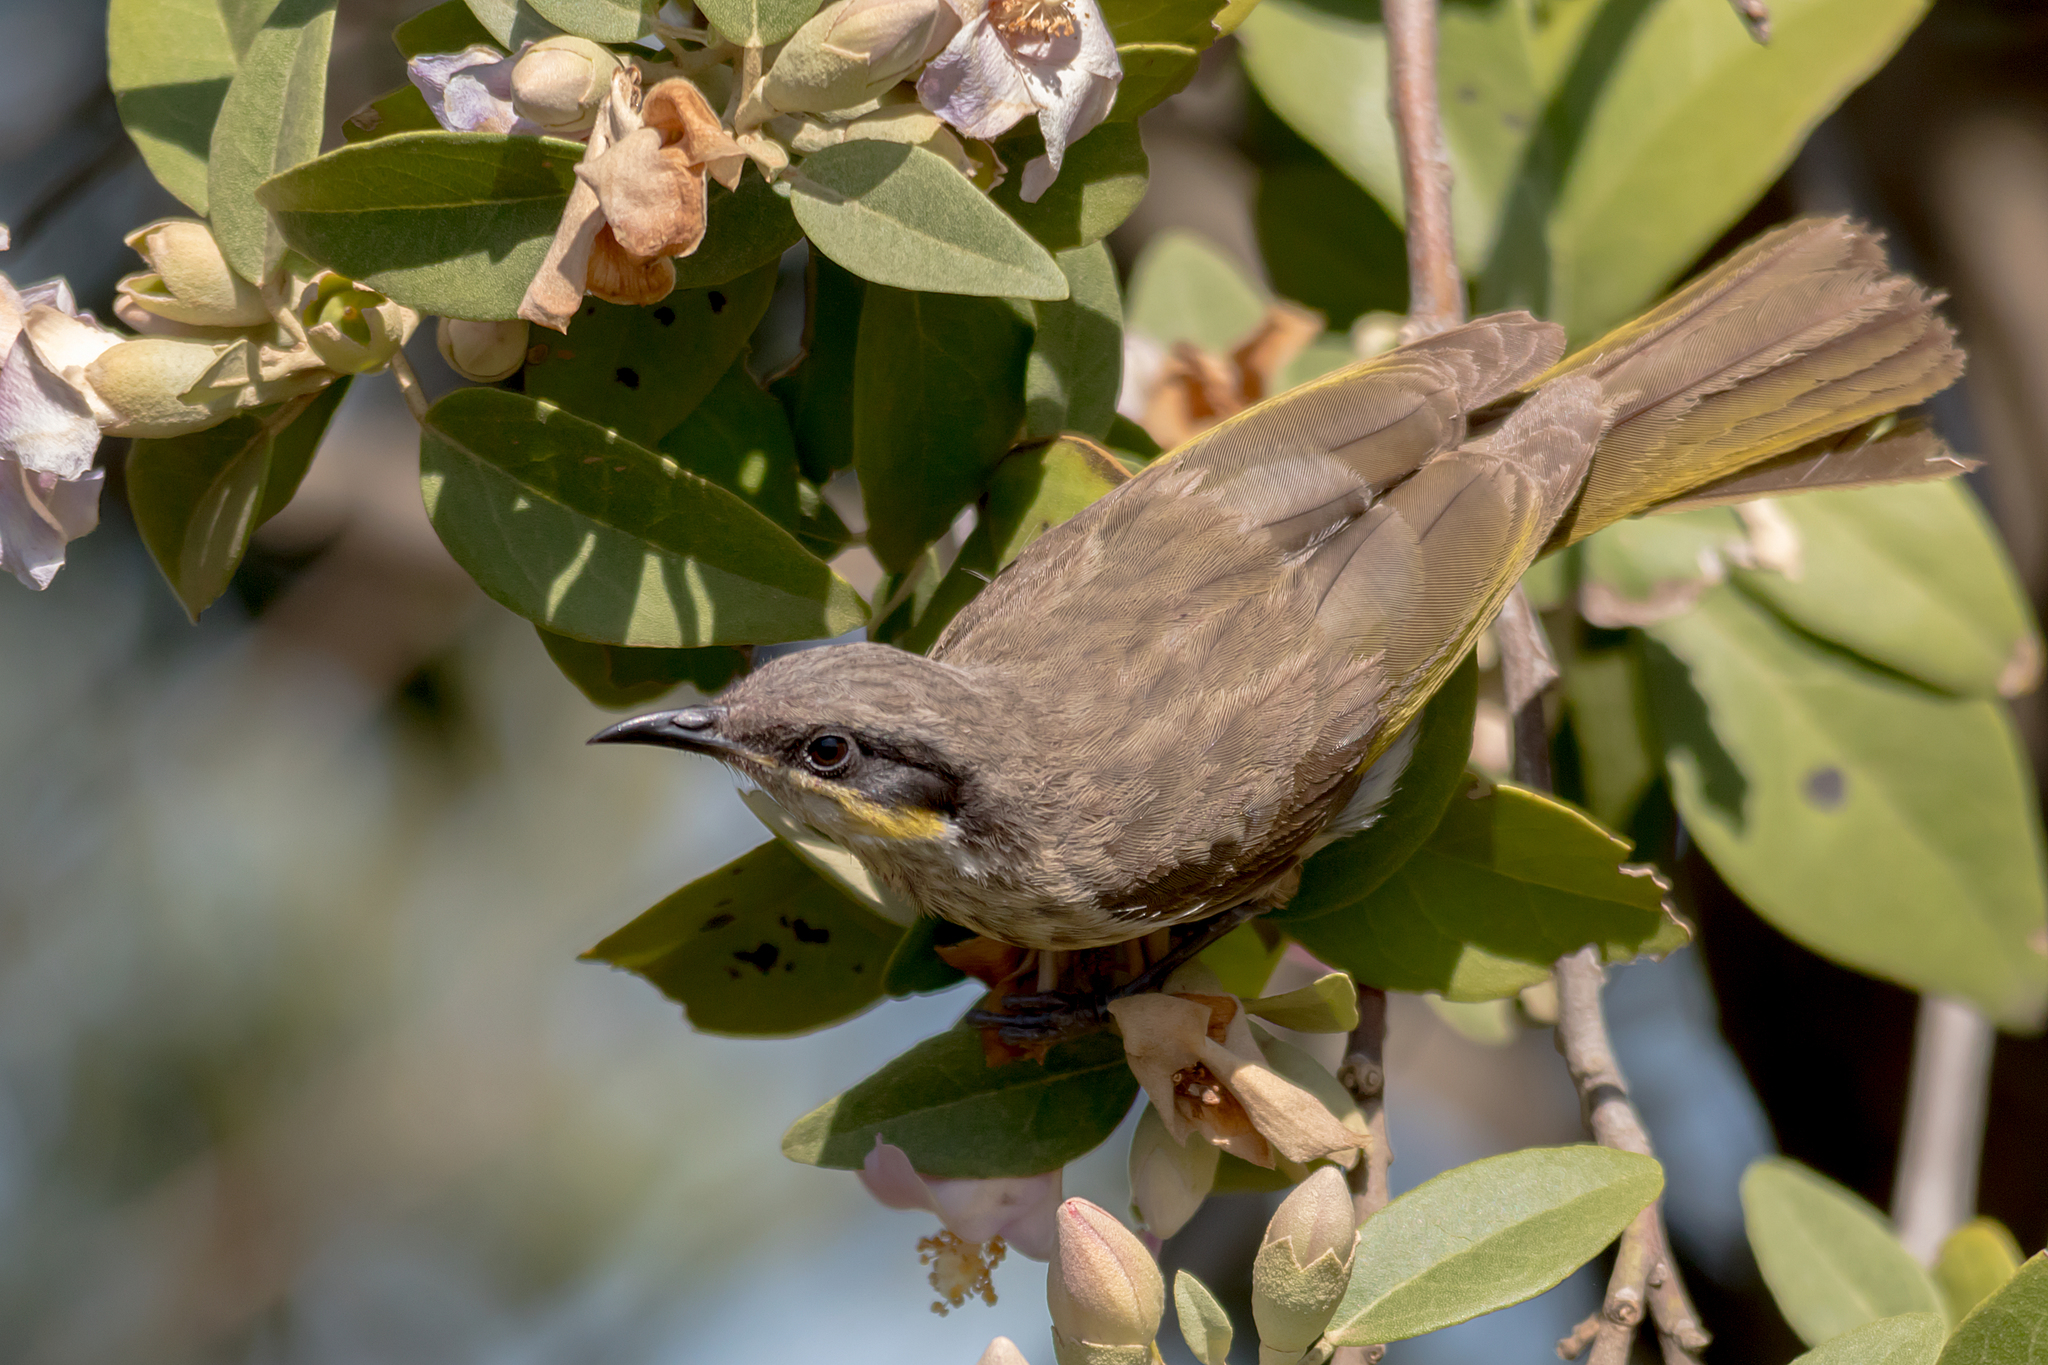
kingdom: Animalia
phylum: Chordata
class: Aves
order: Passeriformes
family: Meliphagidae
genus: Gavicalis
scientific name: Gavicalis virescens
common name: Singing honeyeater
